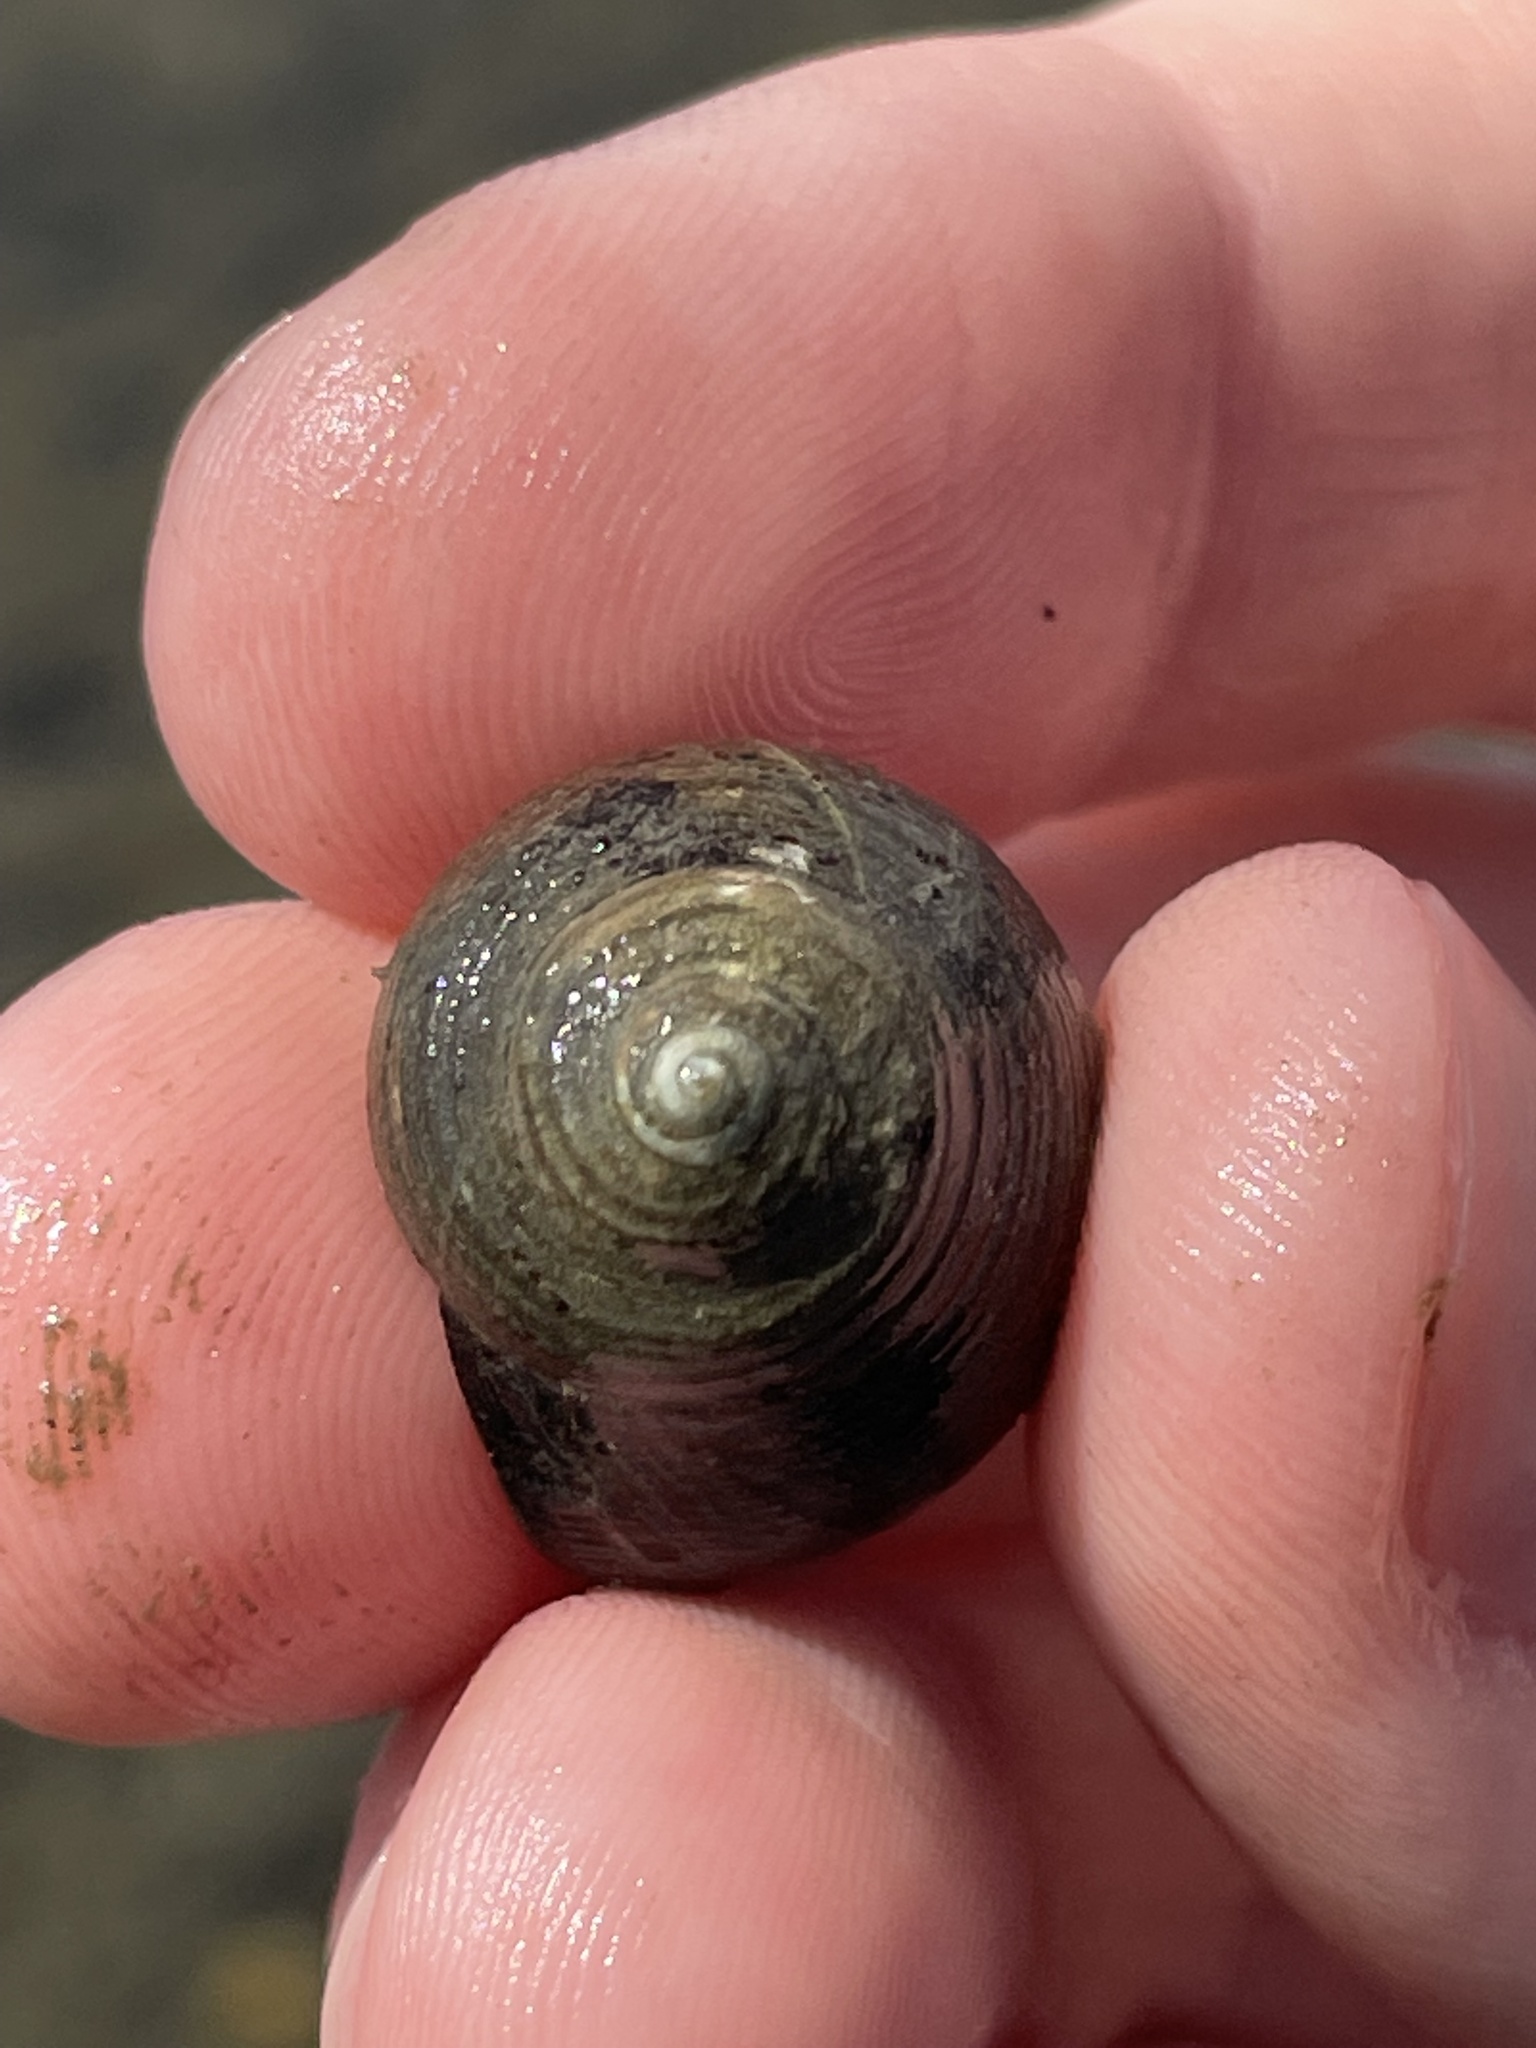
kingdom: Animalia
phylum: Mollusca
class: Gastropoda
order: Littorinimorpha
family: Littorinidae
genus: Littorina
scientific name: Littorina littorea
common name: Common periwinkle
